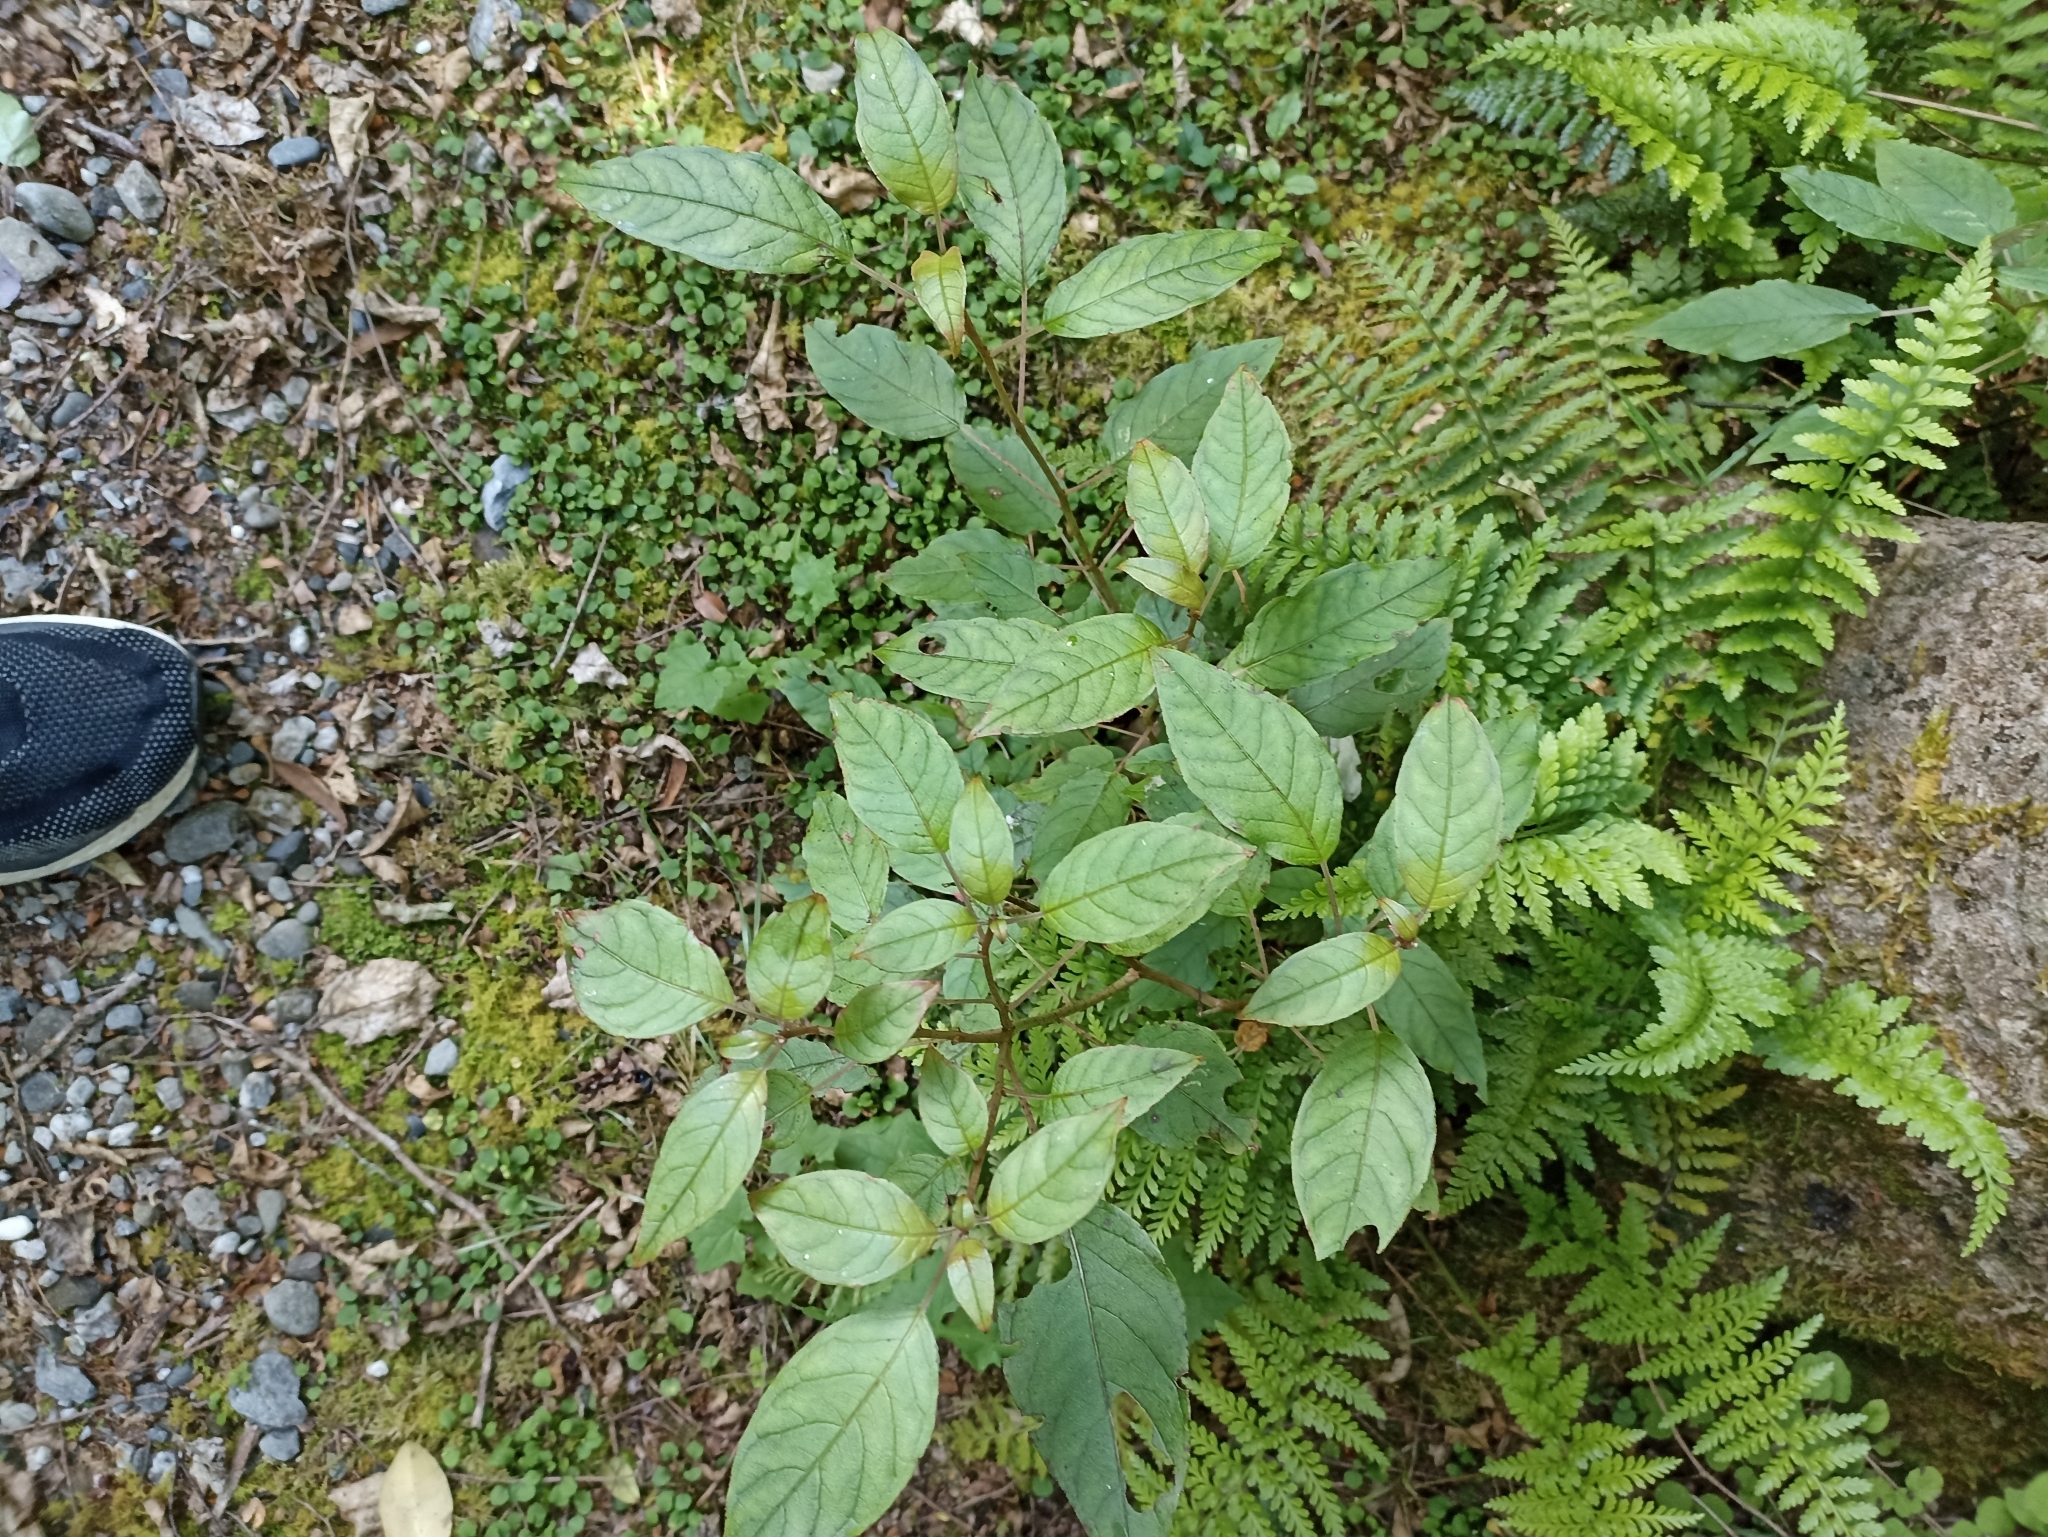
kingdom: Plantae
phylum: Tracheophyta
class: Magnoliopsida
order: Myrtales
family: Onagraceae
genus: Fuchsia
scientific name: Fuchsia excorticata
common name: Tree fuchsia
